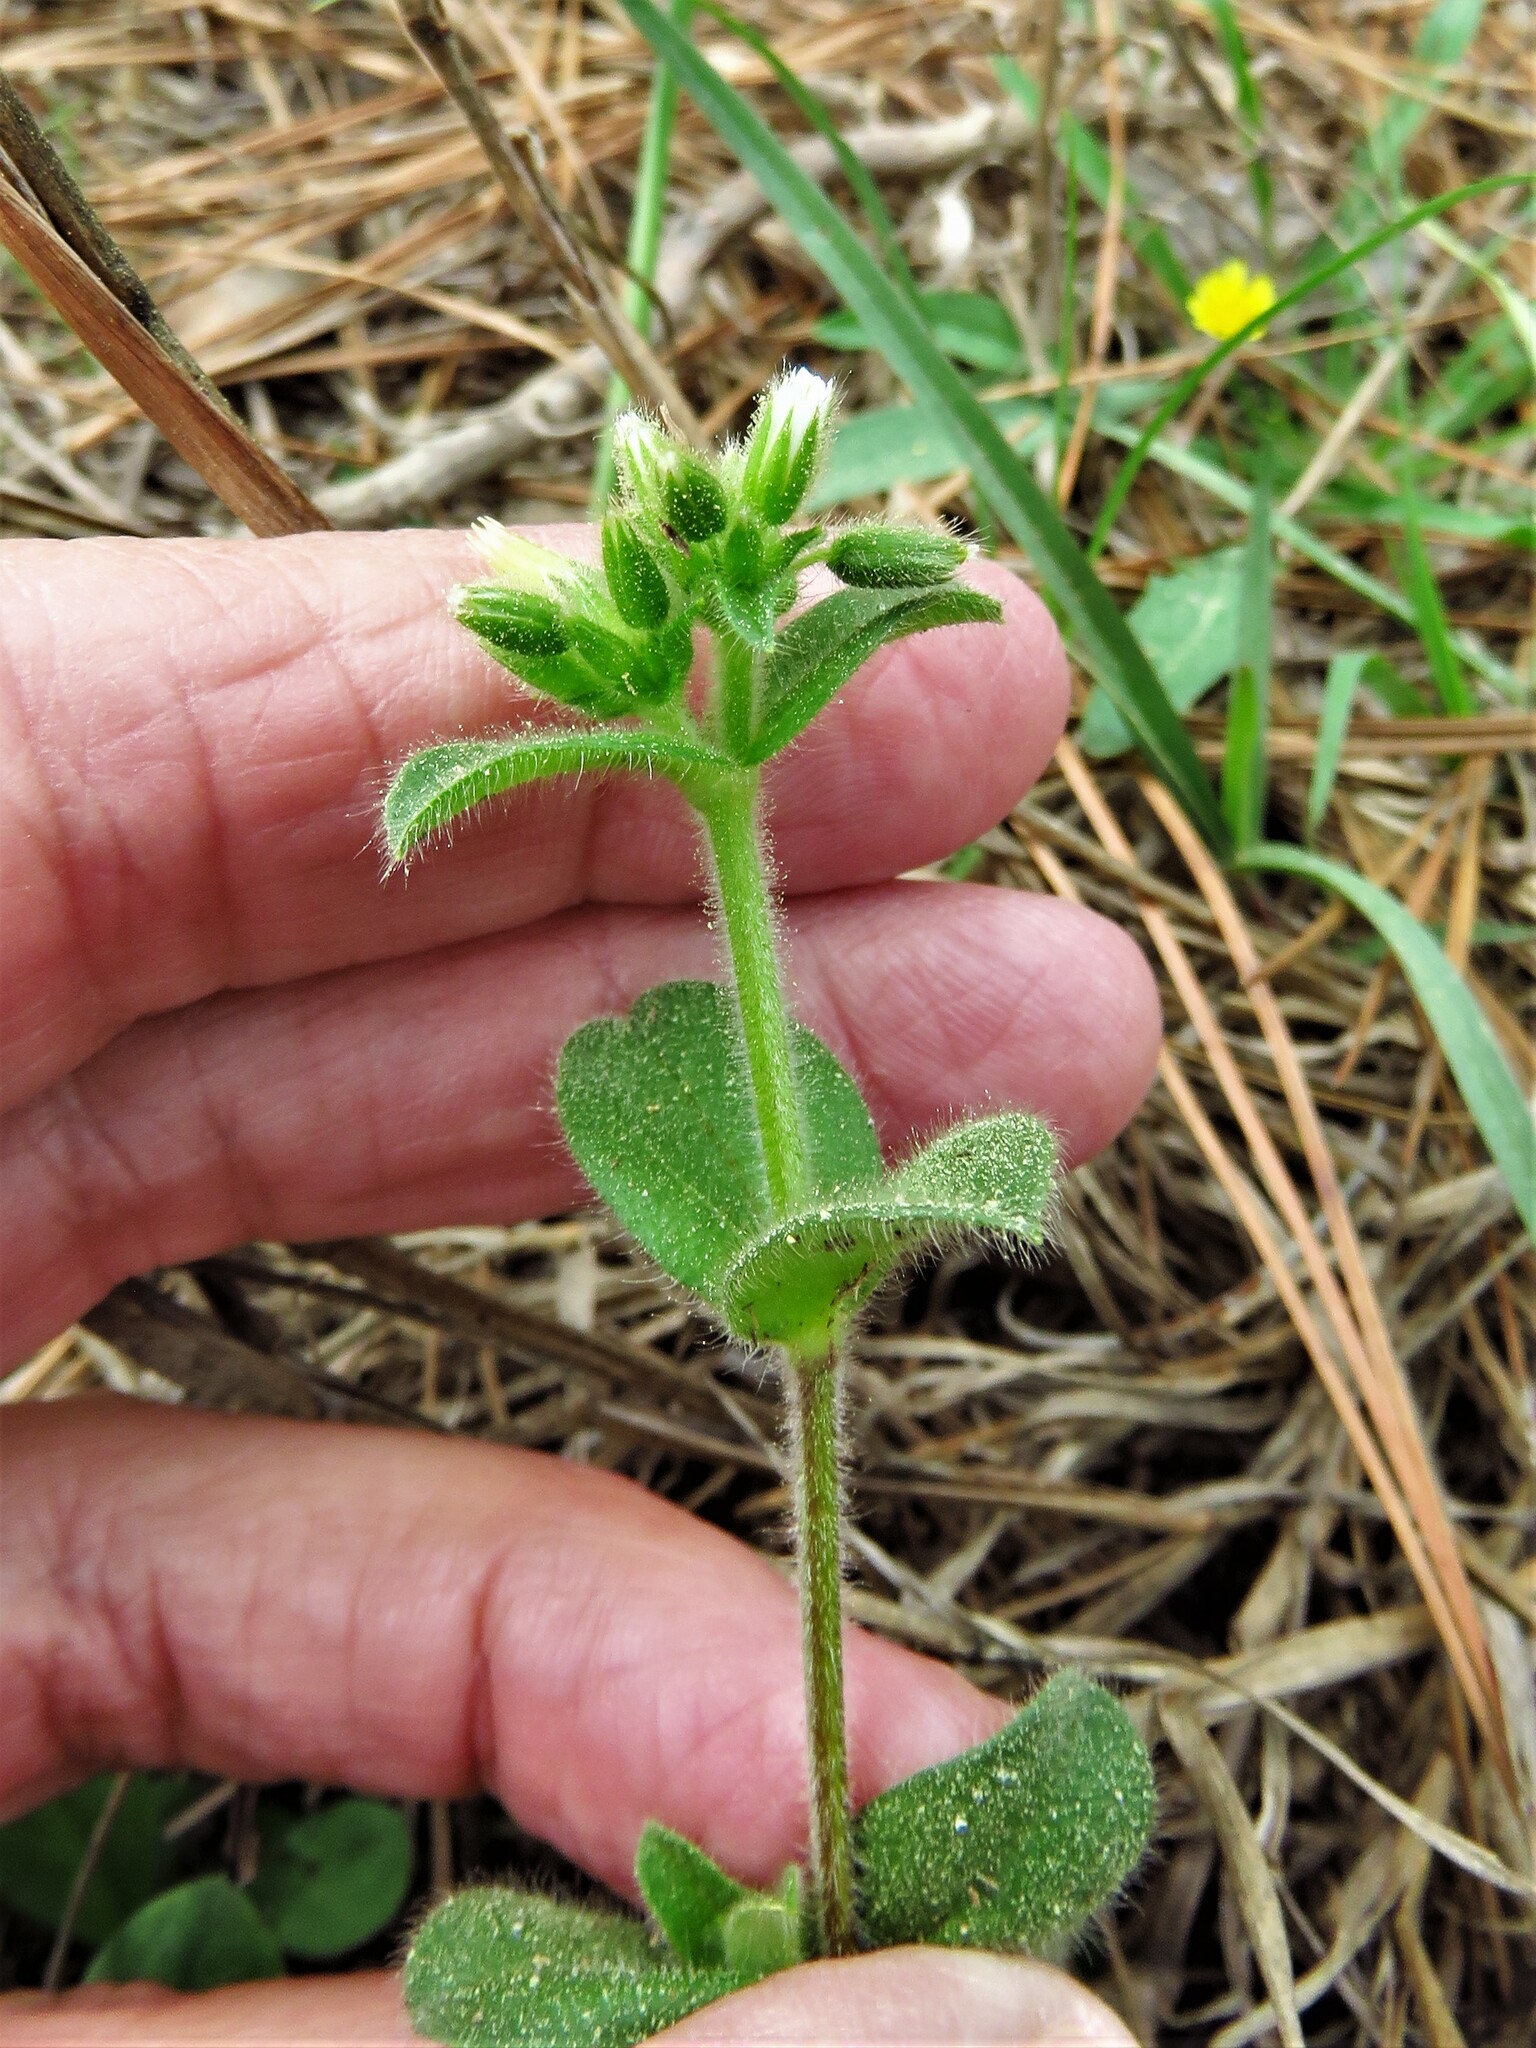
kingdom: Plantae
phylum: Tracheophyta
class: Magnoliopsida
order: Caryophyllales
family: Caryophyllaceae
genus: Cerastium
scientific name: Cerastium glomeratum
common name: Sticky chickweed
